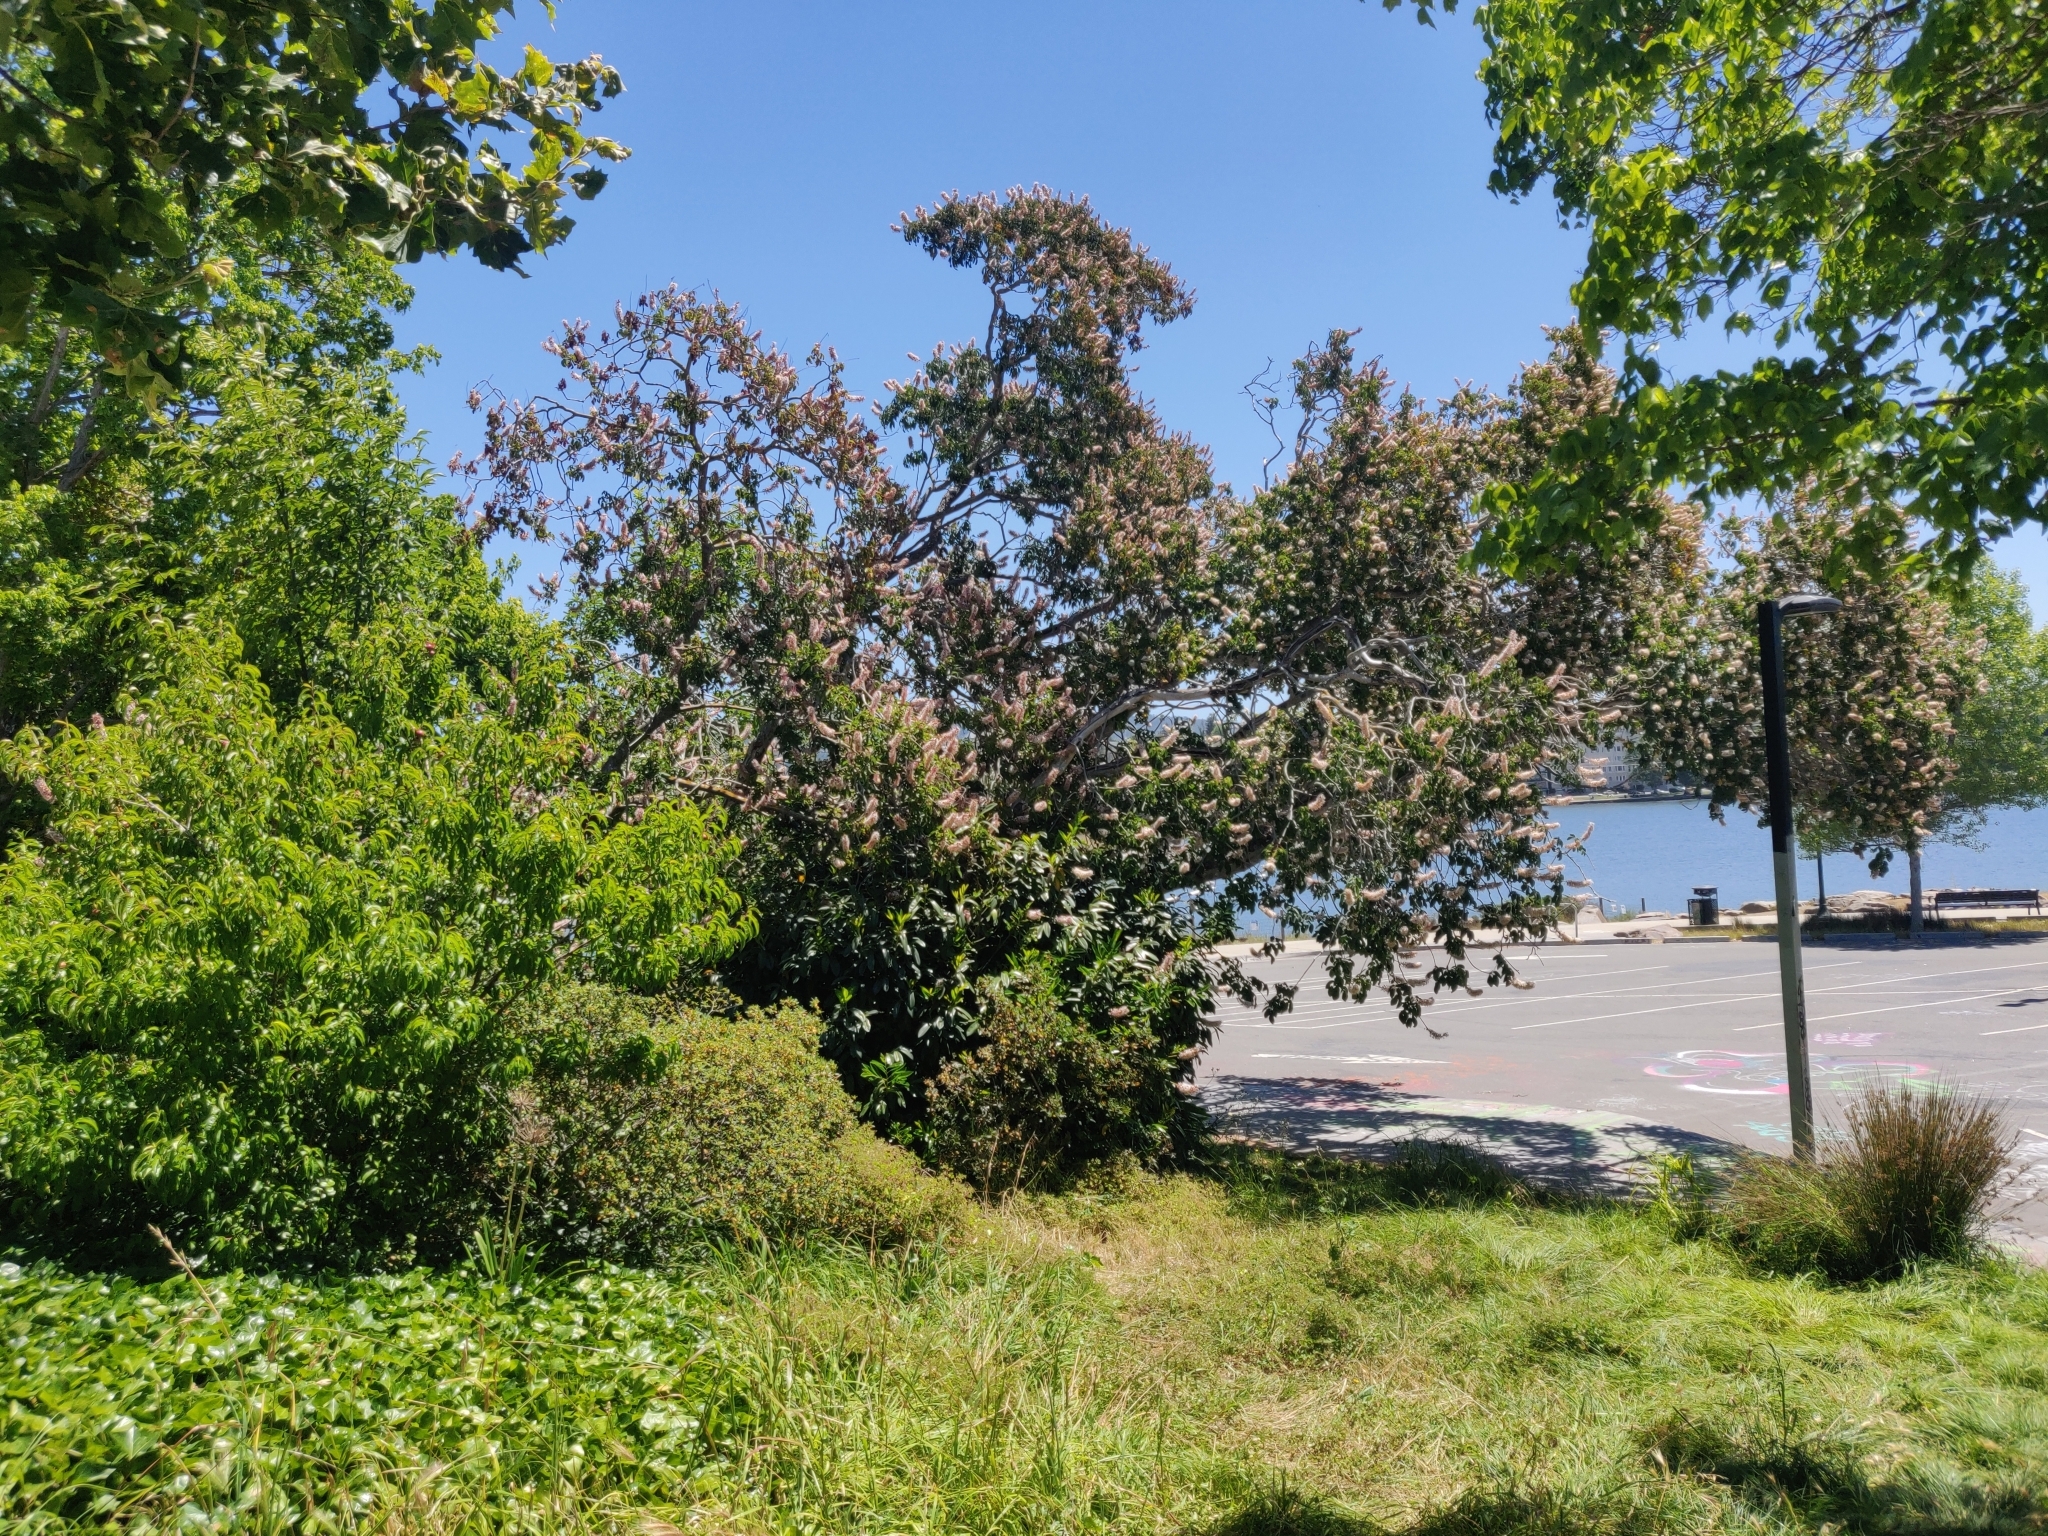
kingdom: Plantae
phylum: Tracheophyta
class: Magnoliopsida
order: Sapindales
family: Sapindaceae
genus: Aesculus
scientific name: Aesculus californica
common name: California buckeye
